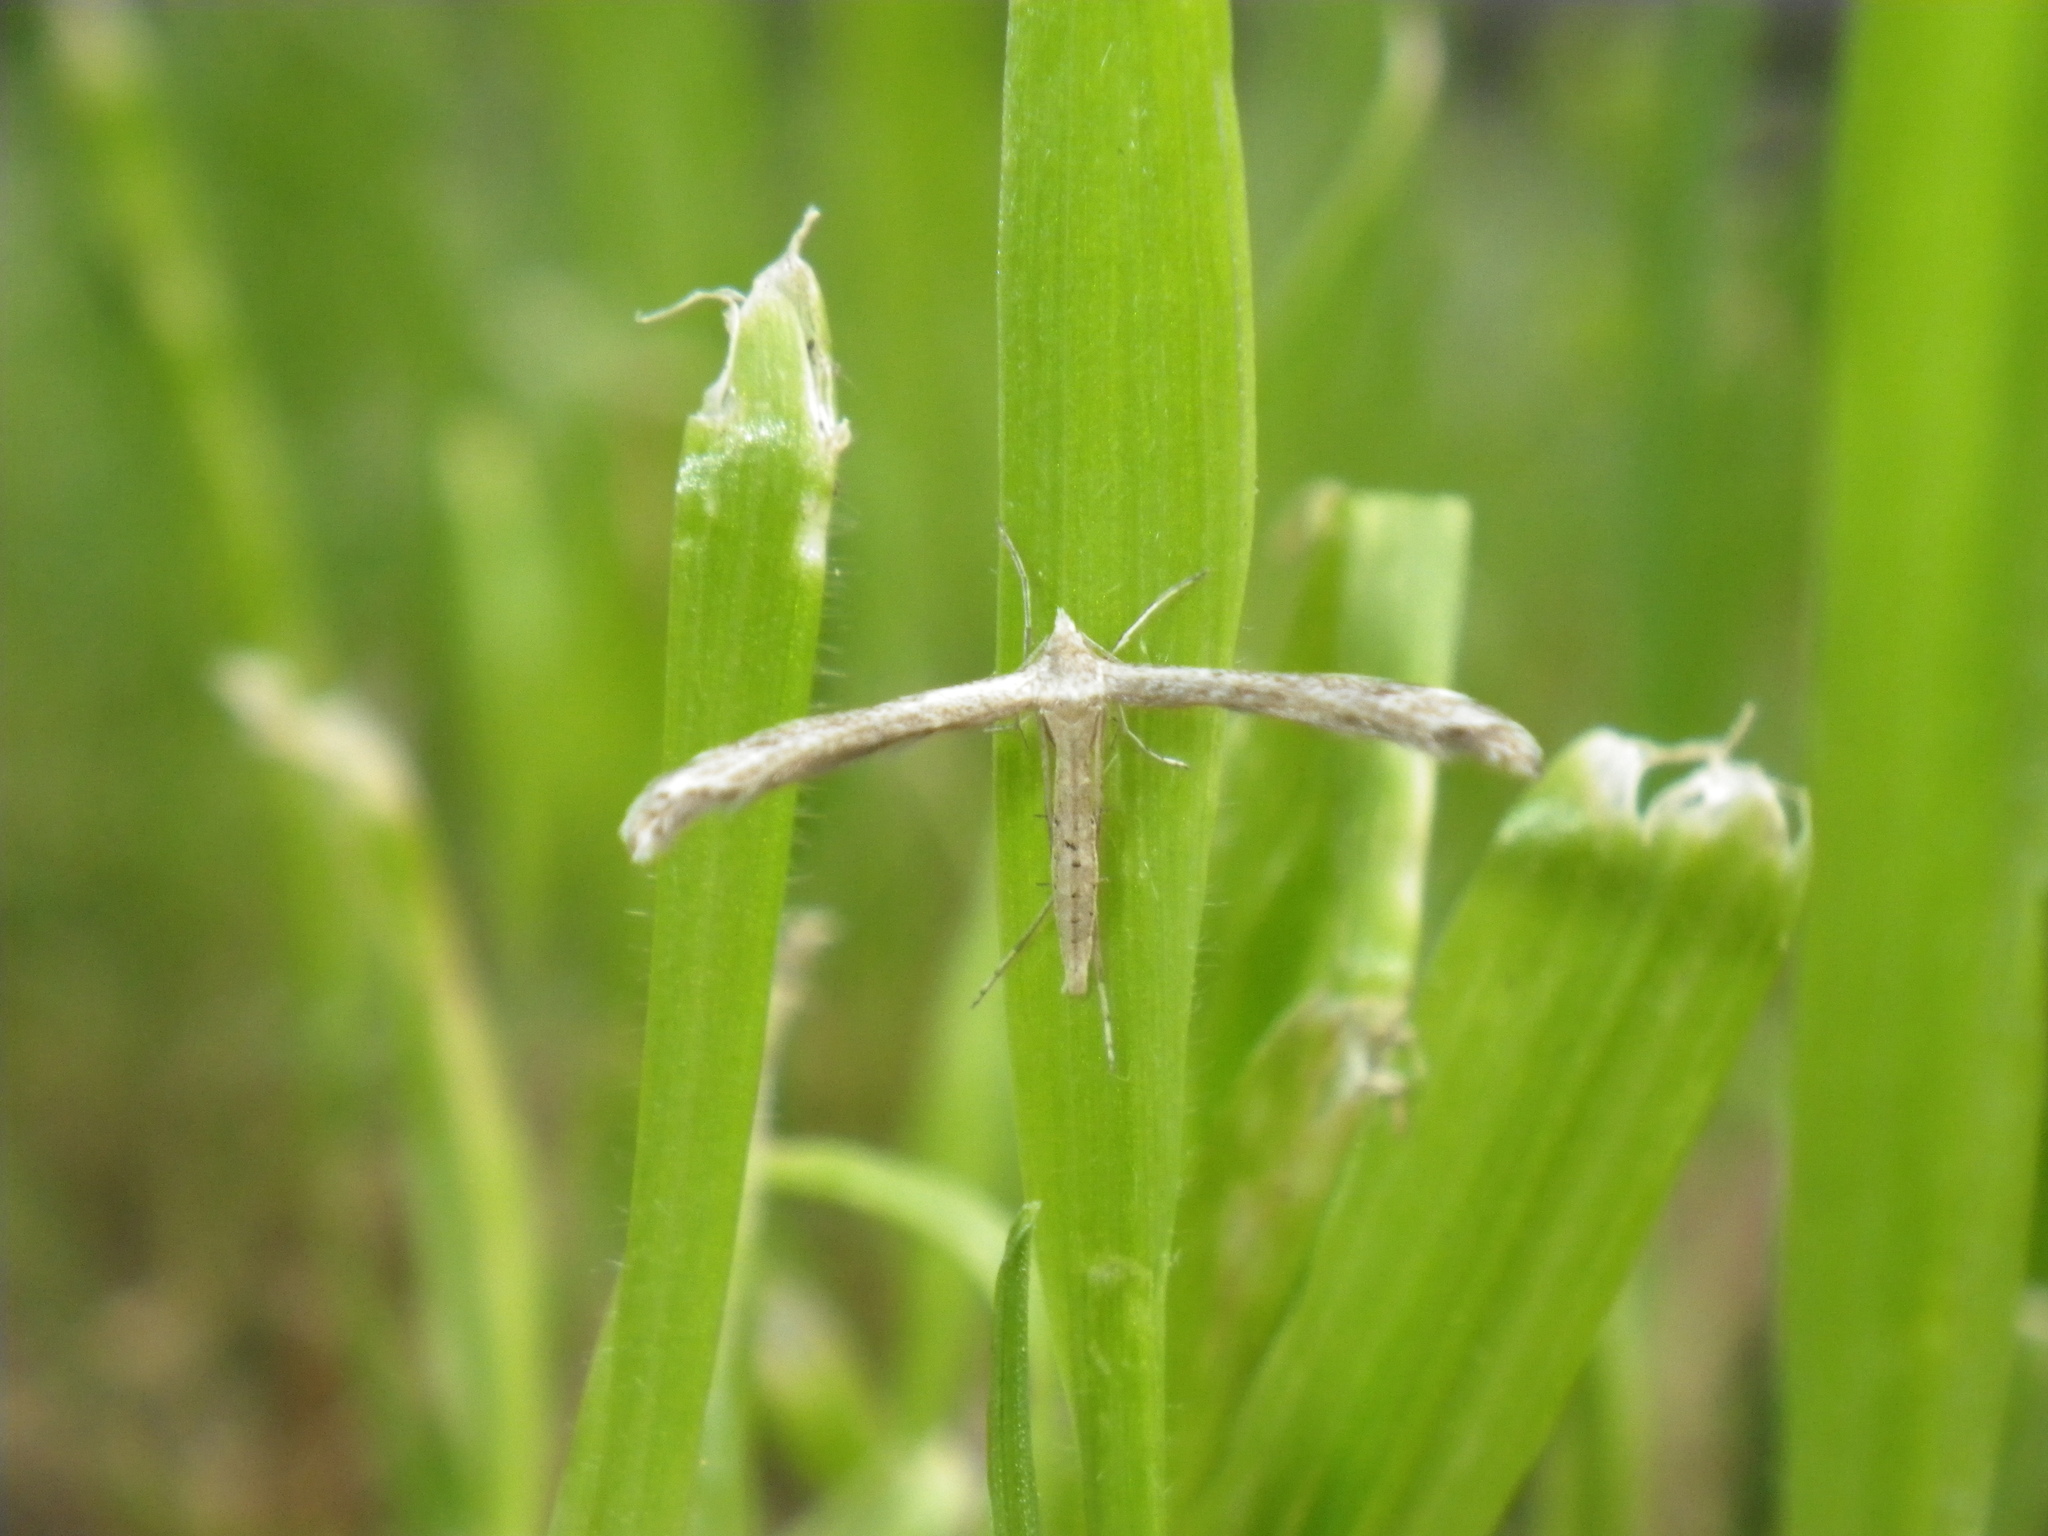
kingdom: Animalia
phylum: Arthropoda
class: Insecta
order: Lepidoptera
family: Pterophoridae
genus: Lioptilodes
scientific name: Lioptilodes albistriolatus
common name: Moth
